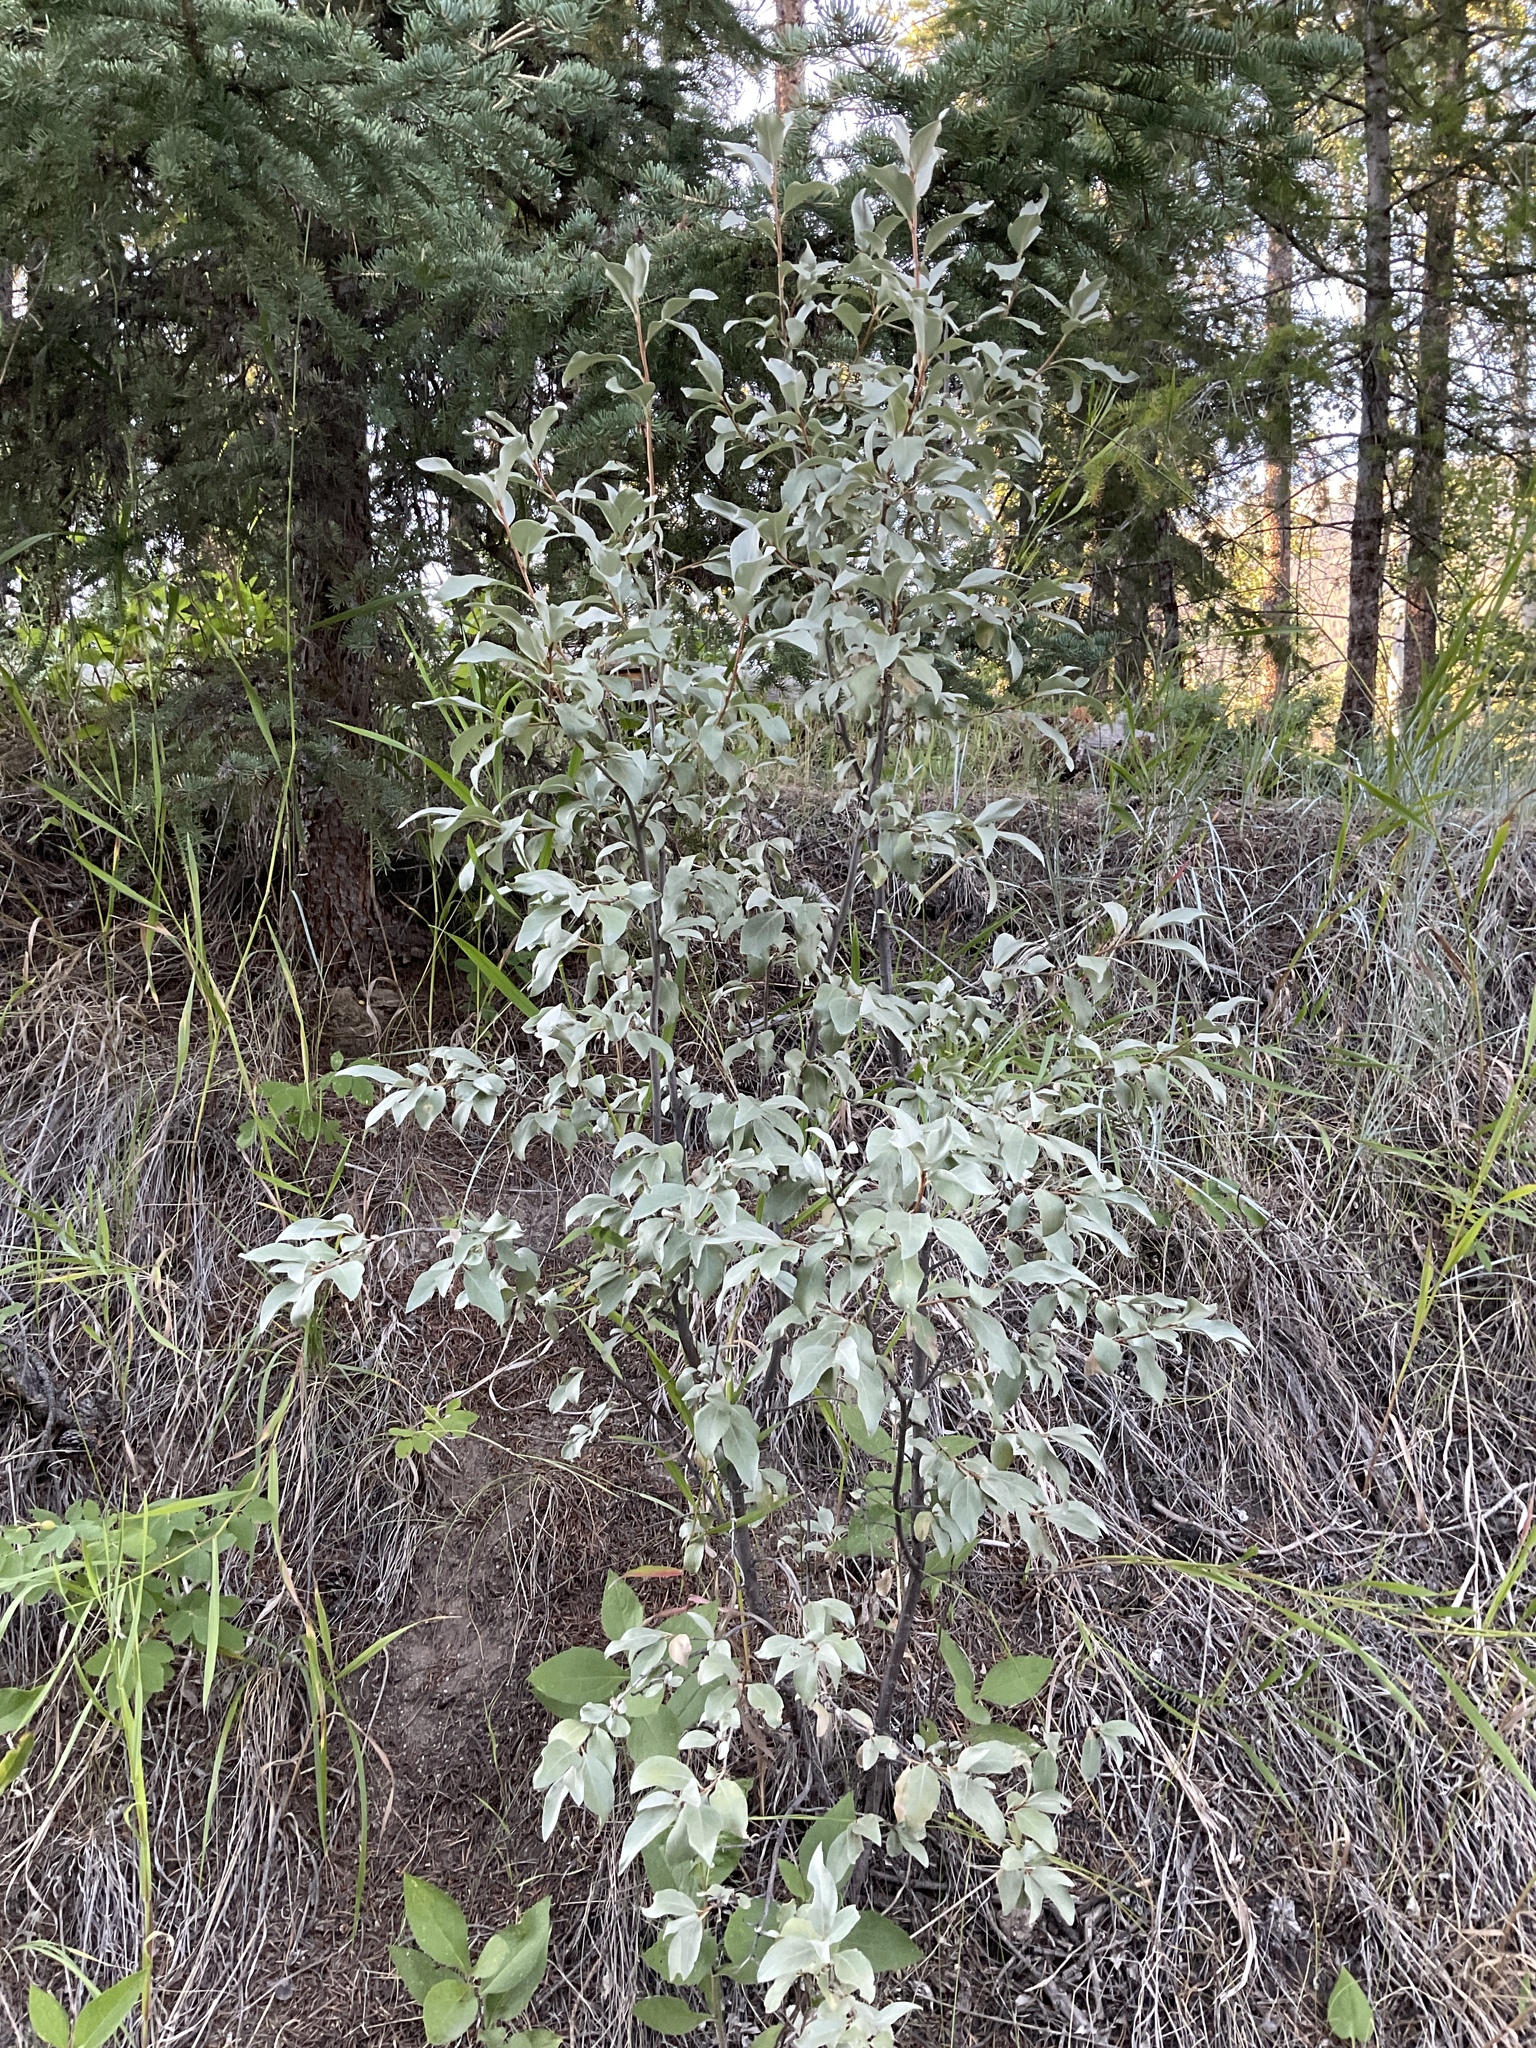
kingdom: Plantae
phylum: Tracheophyta
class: Magnoliopsida
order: Rosales
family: Elaeagnaceae
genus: Elaeagnus
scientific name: Elaeagnus commutata
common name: Silverberry
